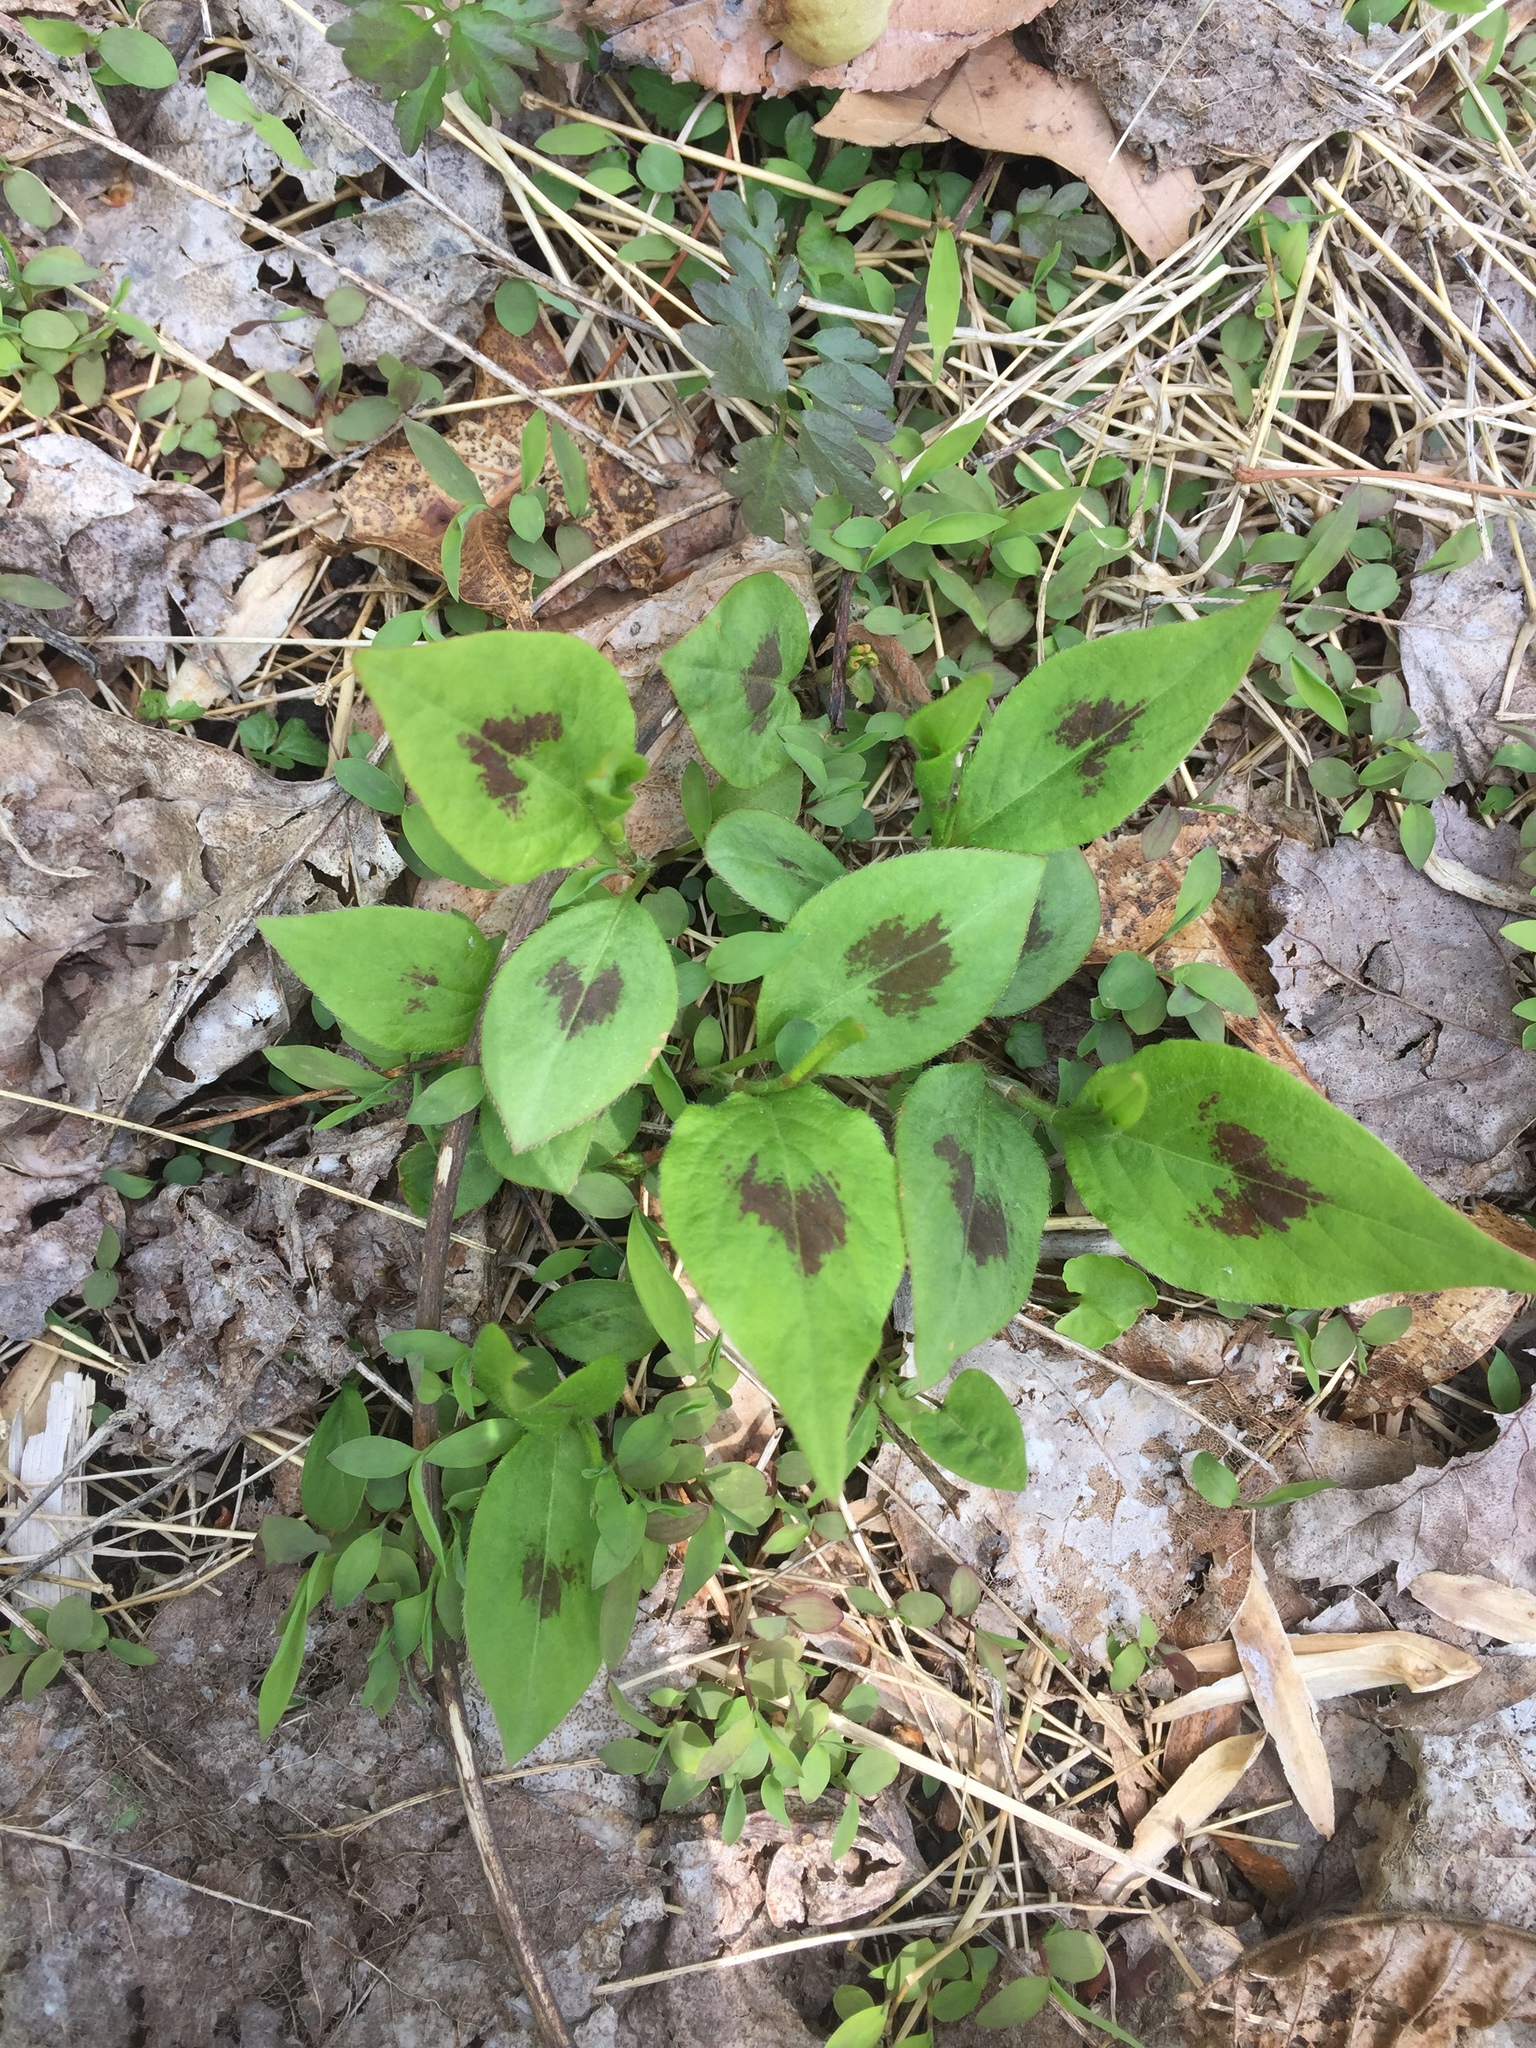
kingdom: Plantae
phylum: Tracheophyta
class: Magnoliopsida
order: Caryophyllales
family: Polygonaceae
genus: Persicaria
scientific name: Persicaria virginiana
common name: Jumpseed
